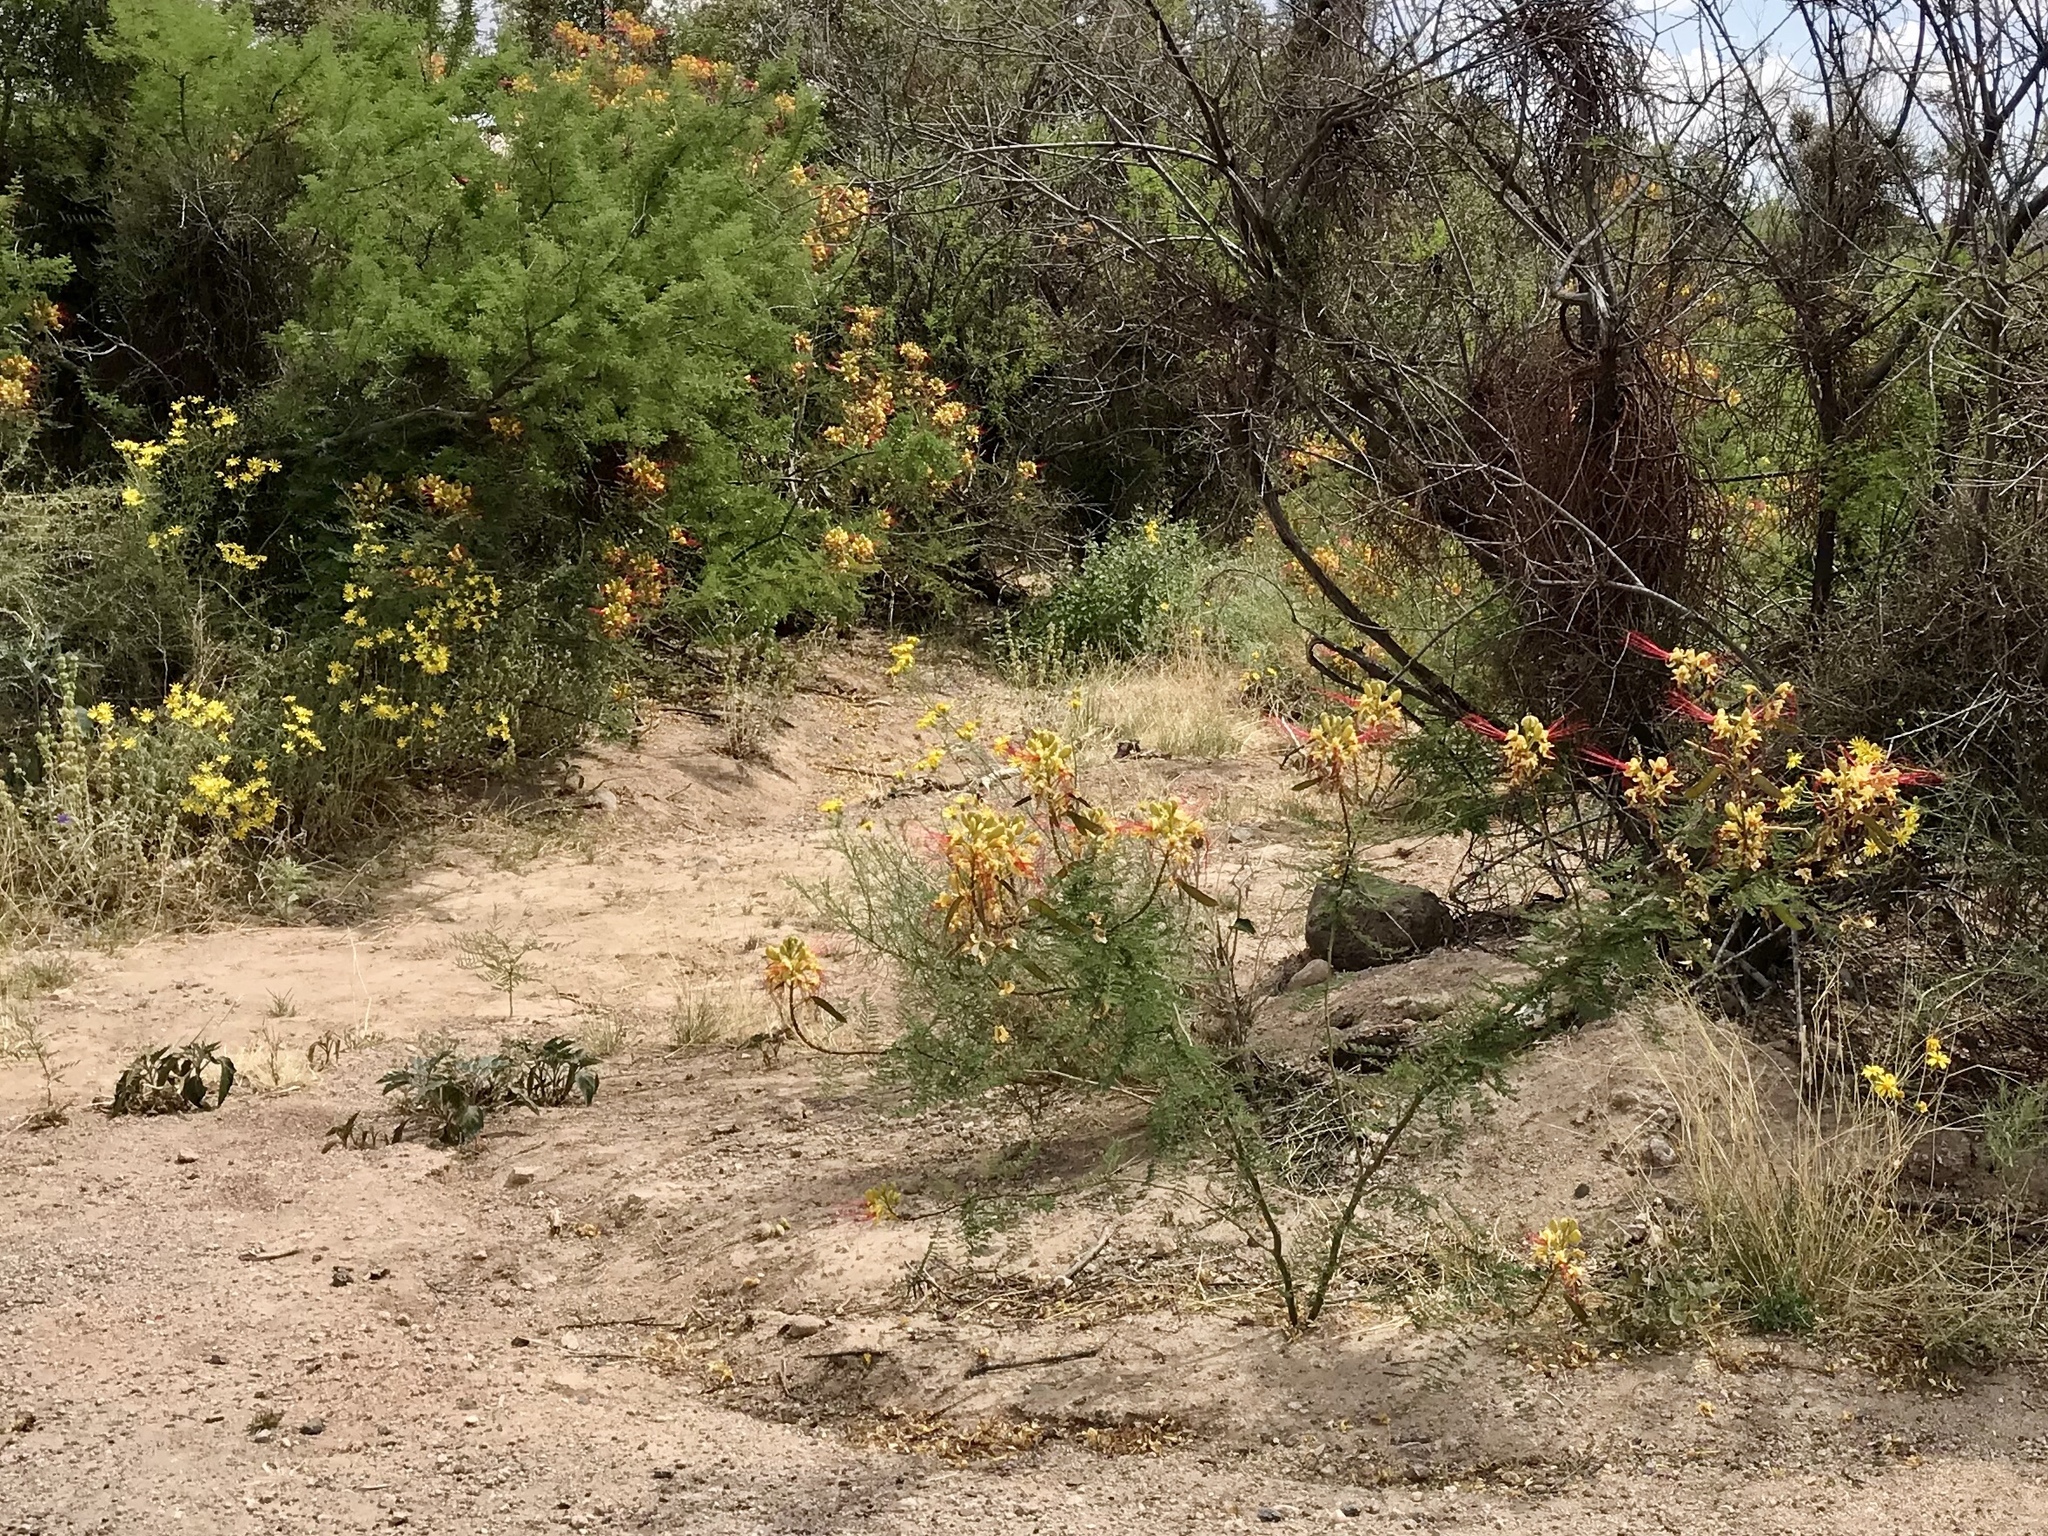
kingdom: Plantae
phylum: Tracheophyta
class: Magnoliopsida
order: Fabales
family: Fabaceae
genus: Erythrostemon
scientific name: Erythrostemon gilliesii
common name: Bird-of-paradise shrub
